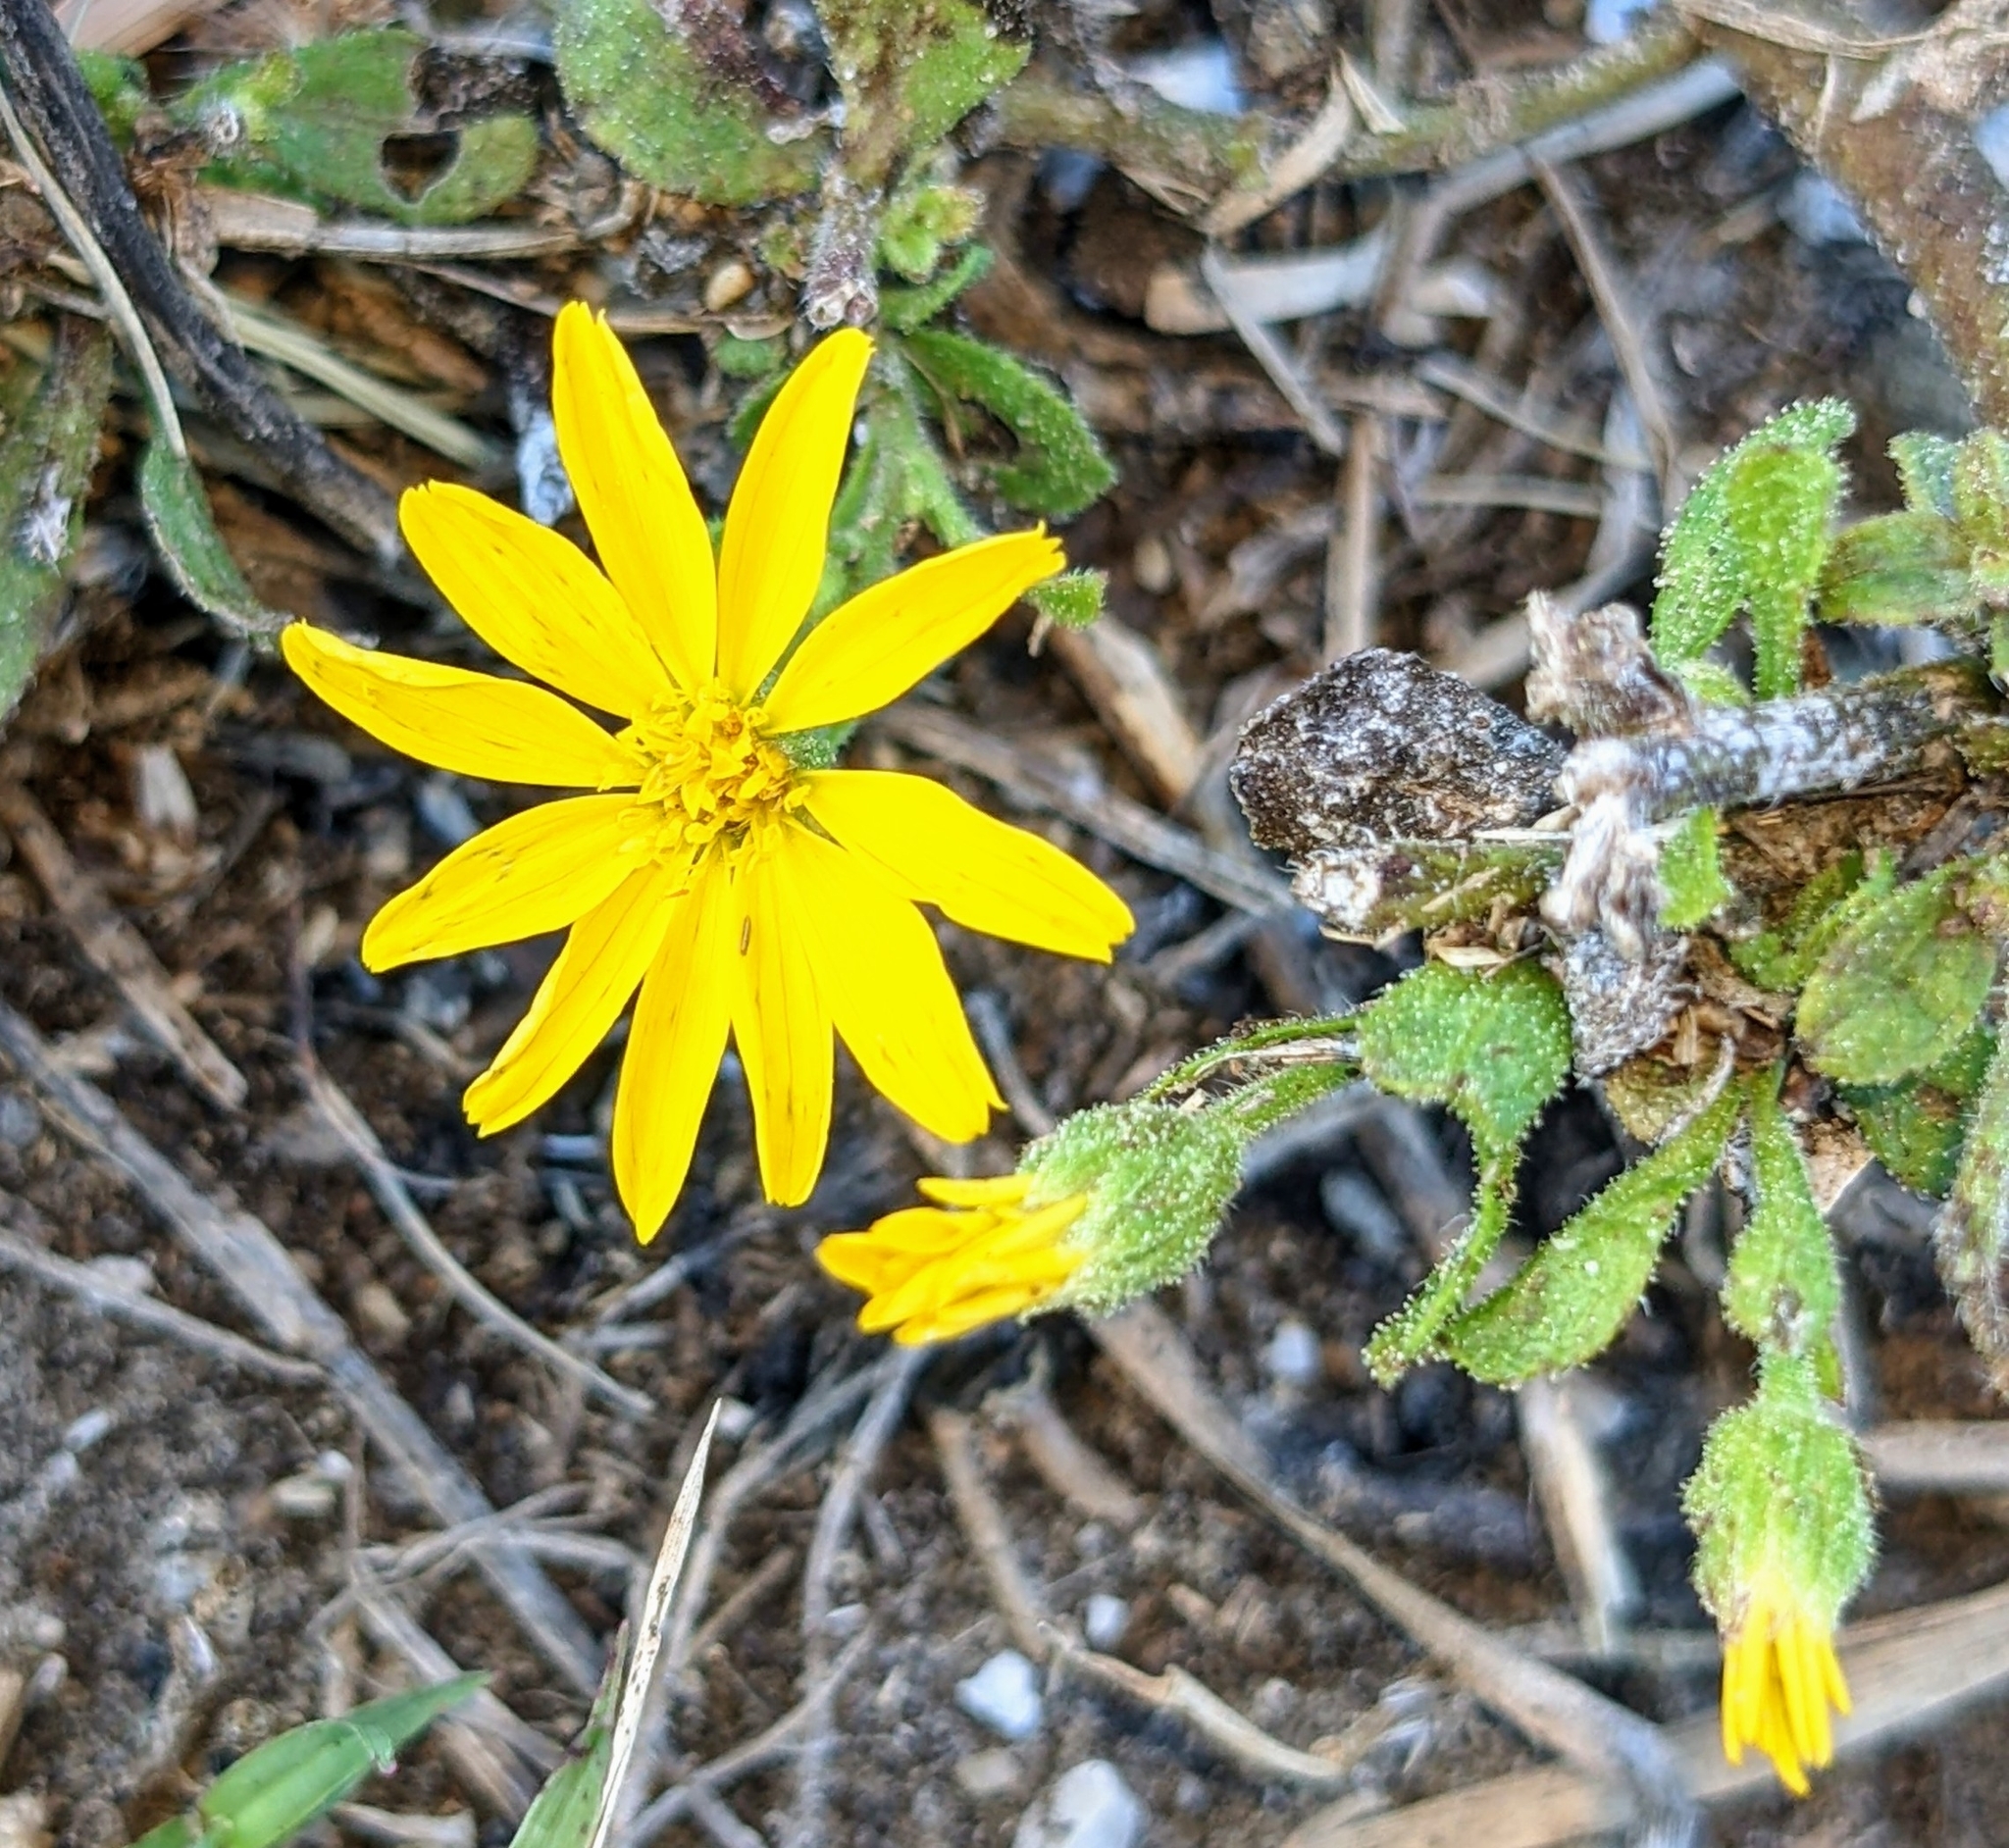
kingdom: Plantae
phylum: Tracheophyta
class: Magnoliopsida
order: Asterales
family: Asteraceae
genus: Heterotheca
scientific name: Heterotheca subaxillaris
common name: Camphorweed
